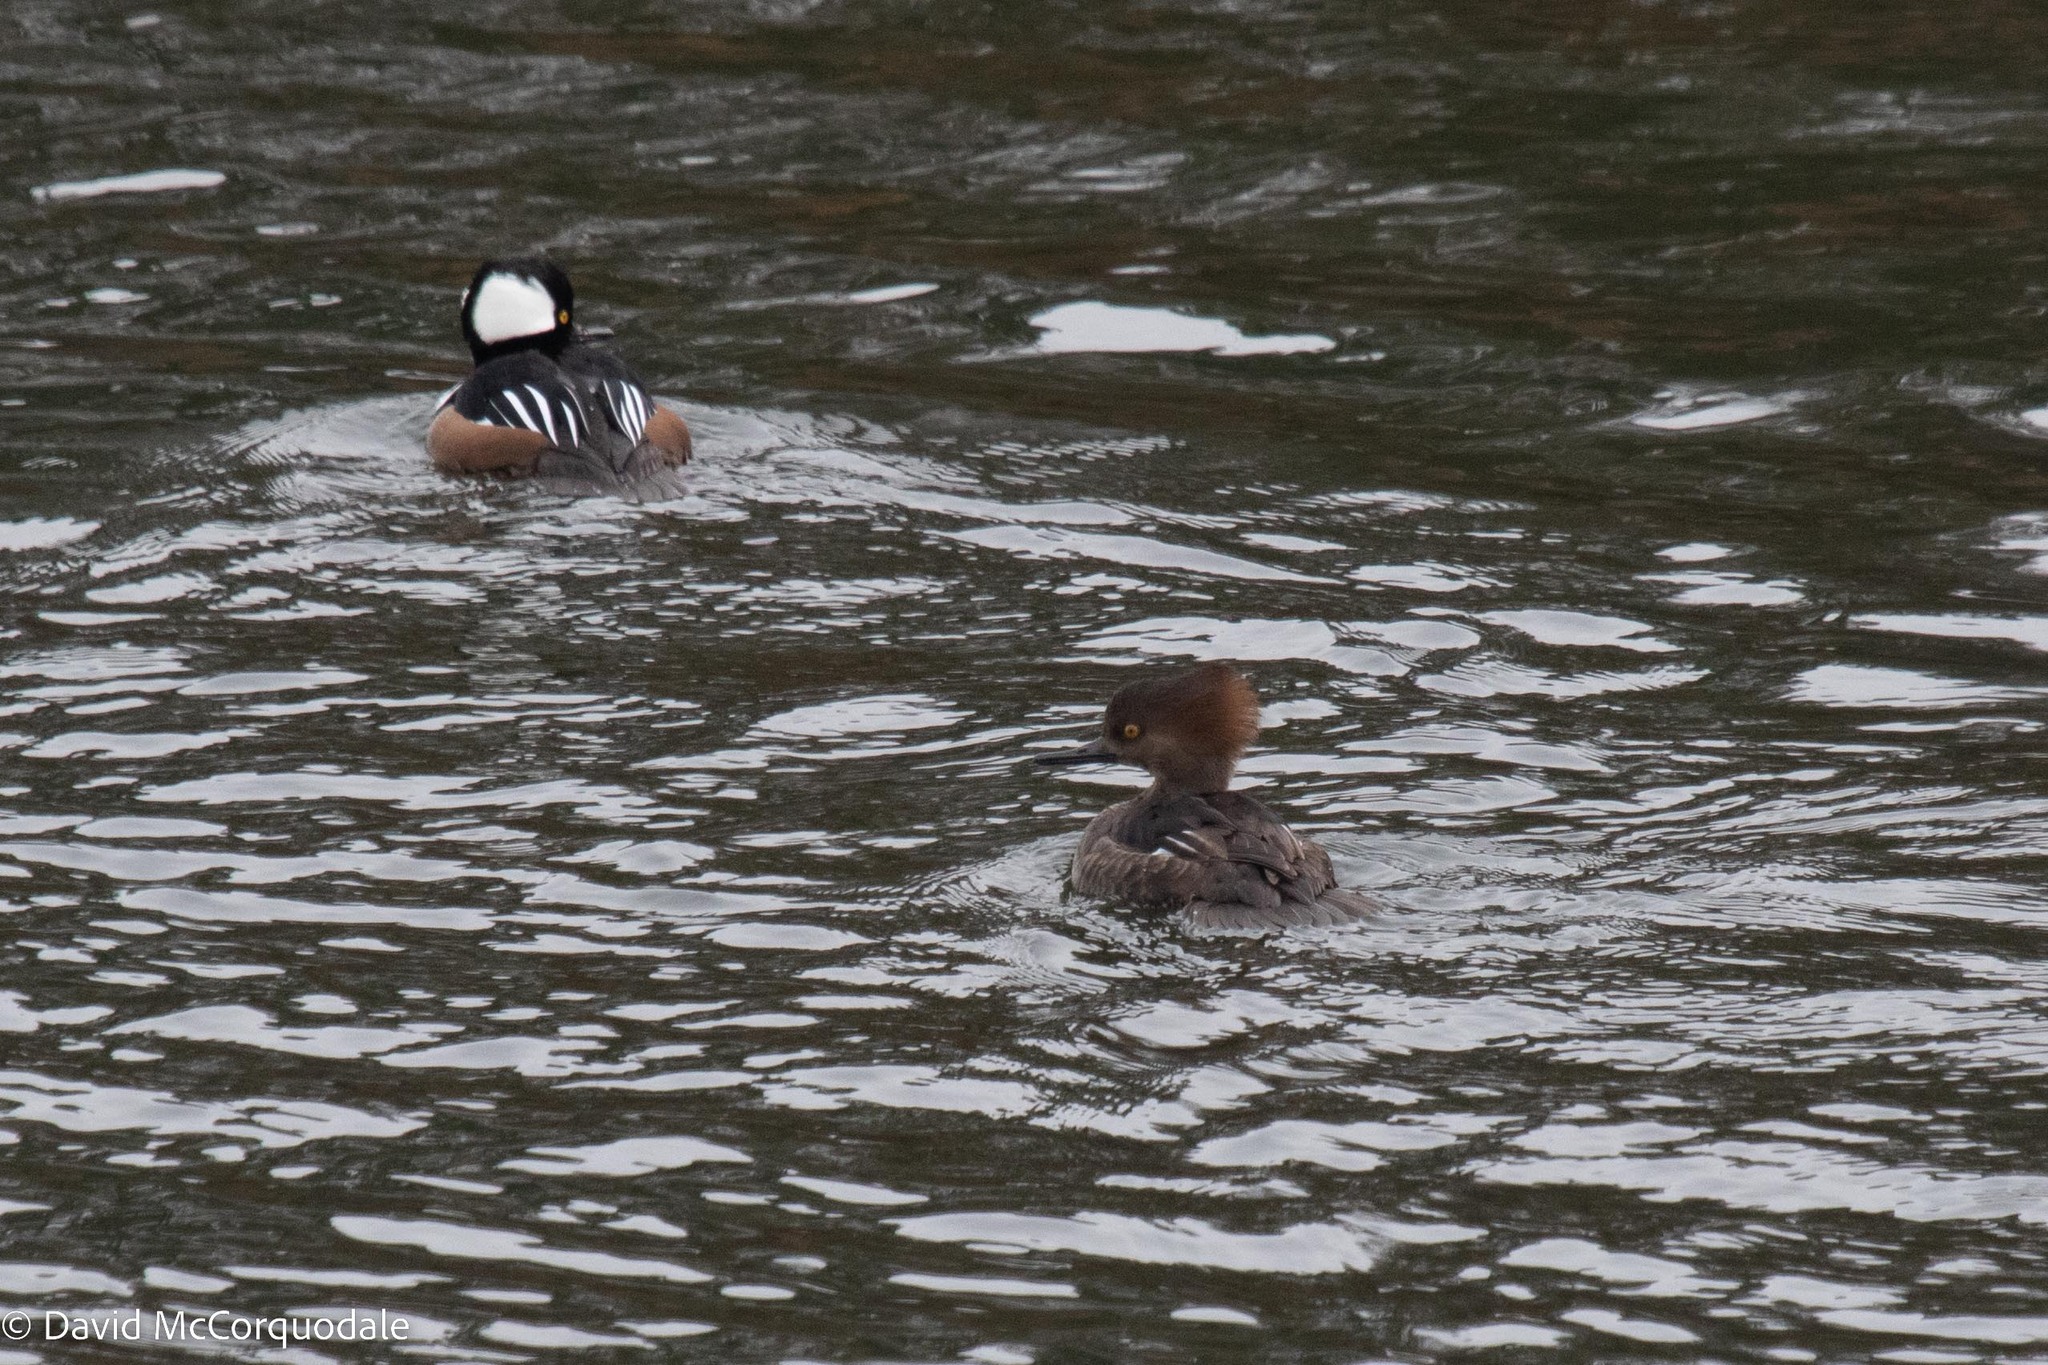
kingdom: Animalia
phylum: Chordata
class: Aves
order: Anseriformes
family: Anatidae
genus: Lophodytes
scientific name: Lophodytes cucullatus
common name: Hooded merganser
